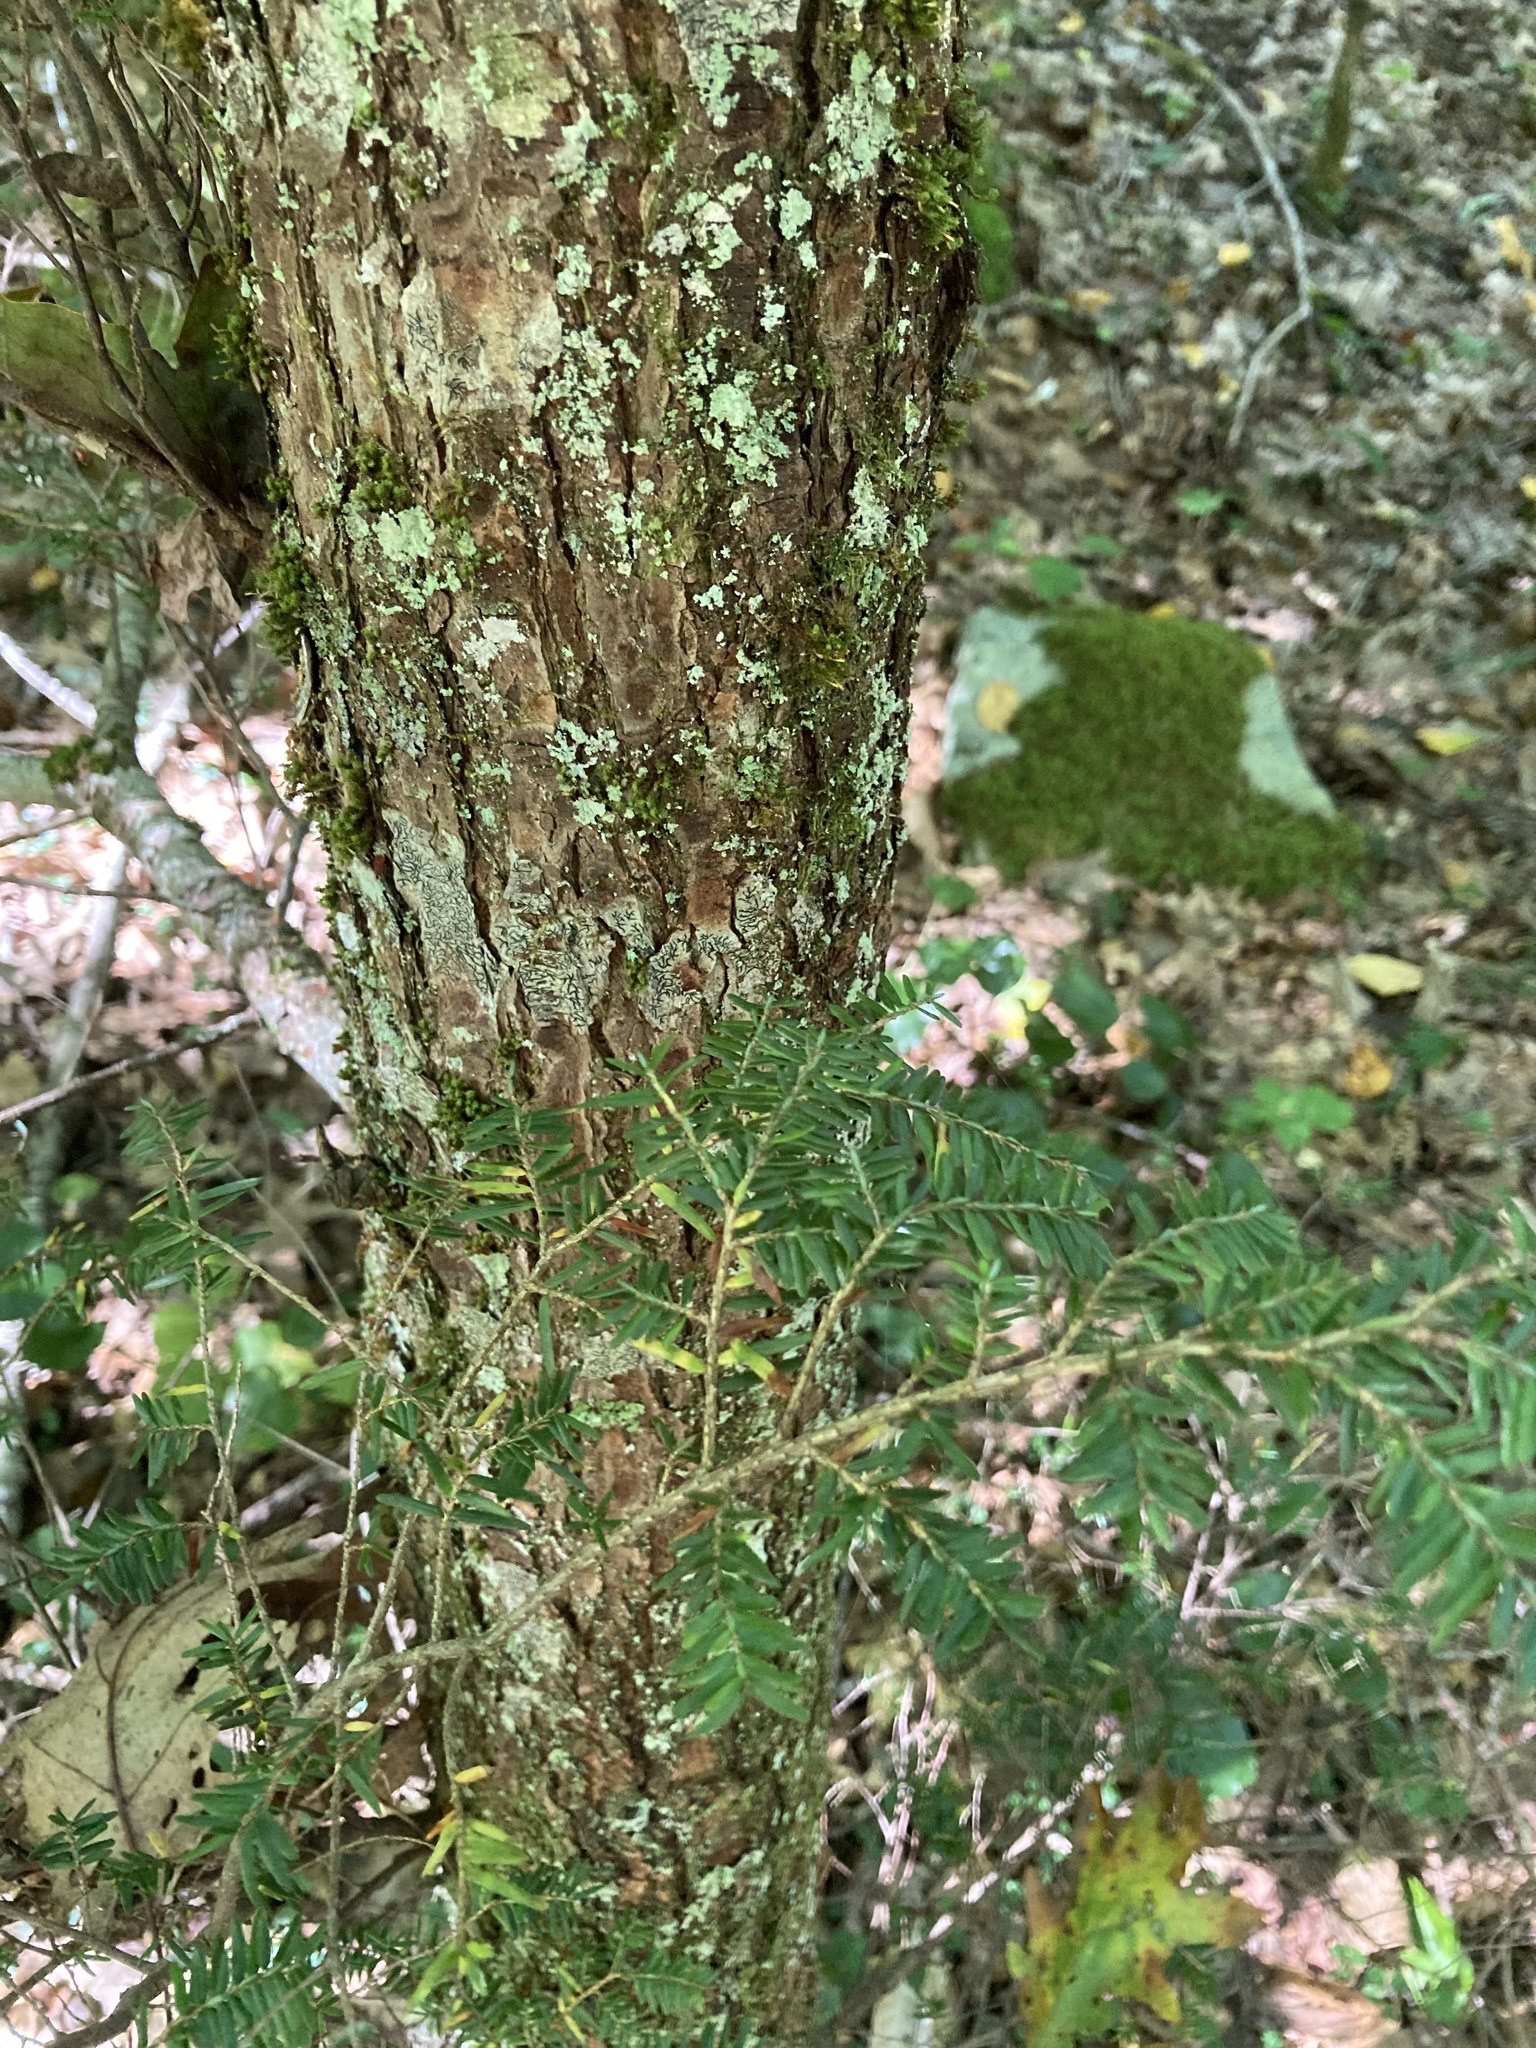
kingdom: Plantae
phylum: Tracheophyta
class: Pinopsida
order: Pinales
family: Pinaceae
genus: Tsuga
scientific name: Tsuga canadensis
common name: Eastern hemlock
